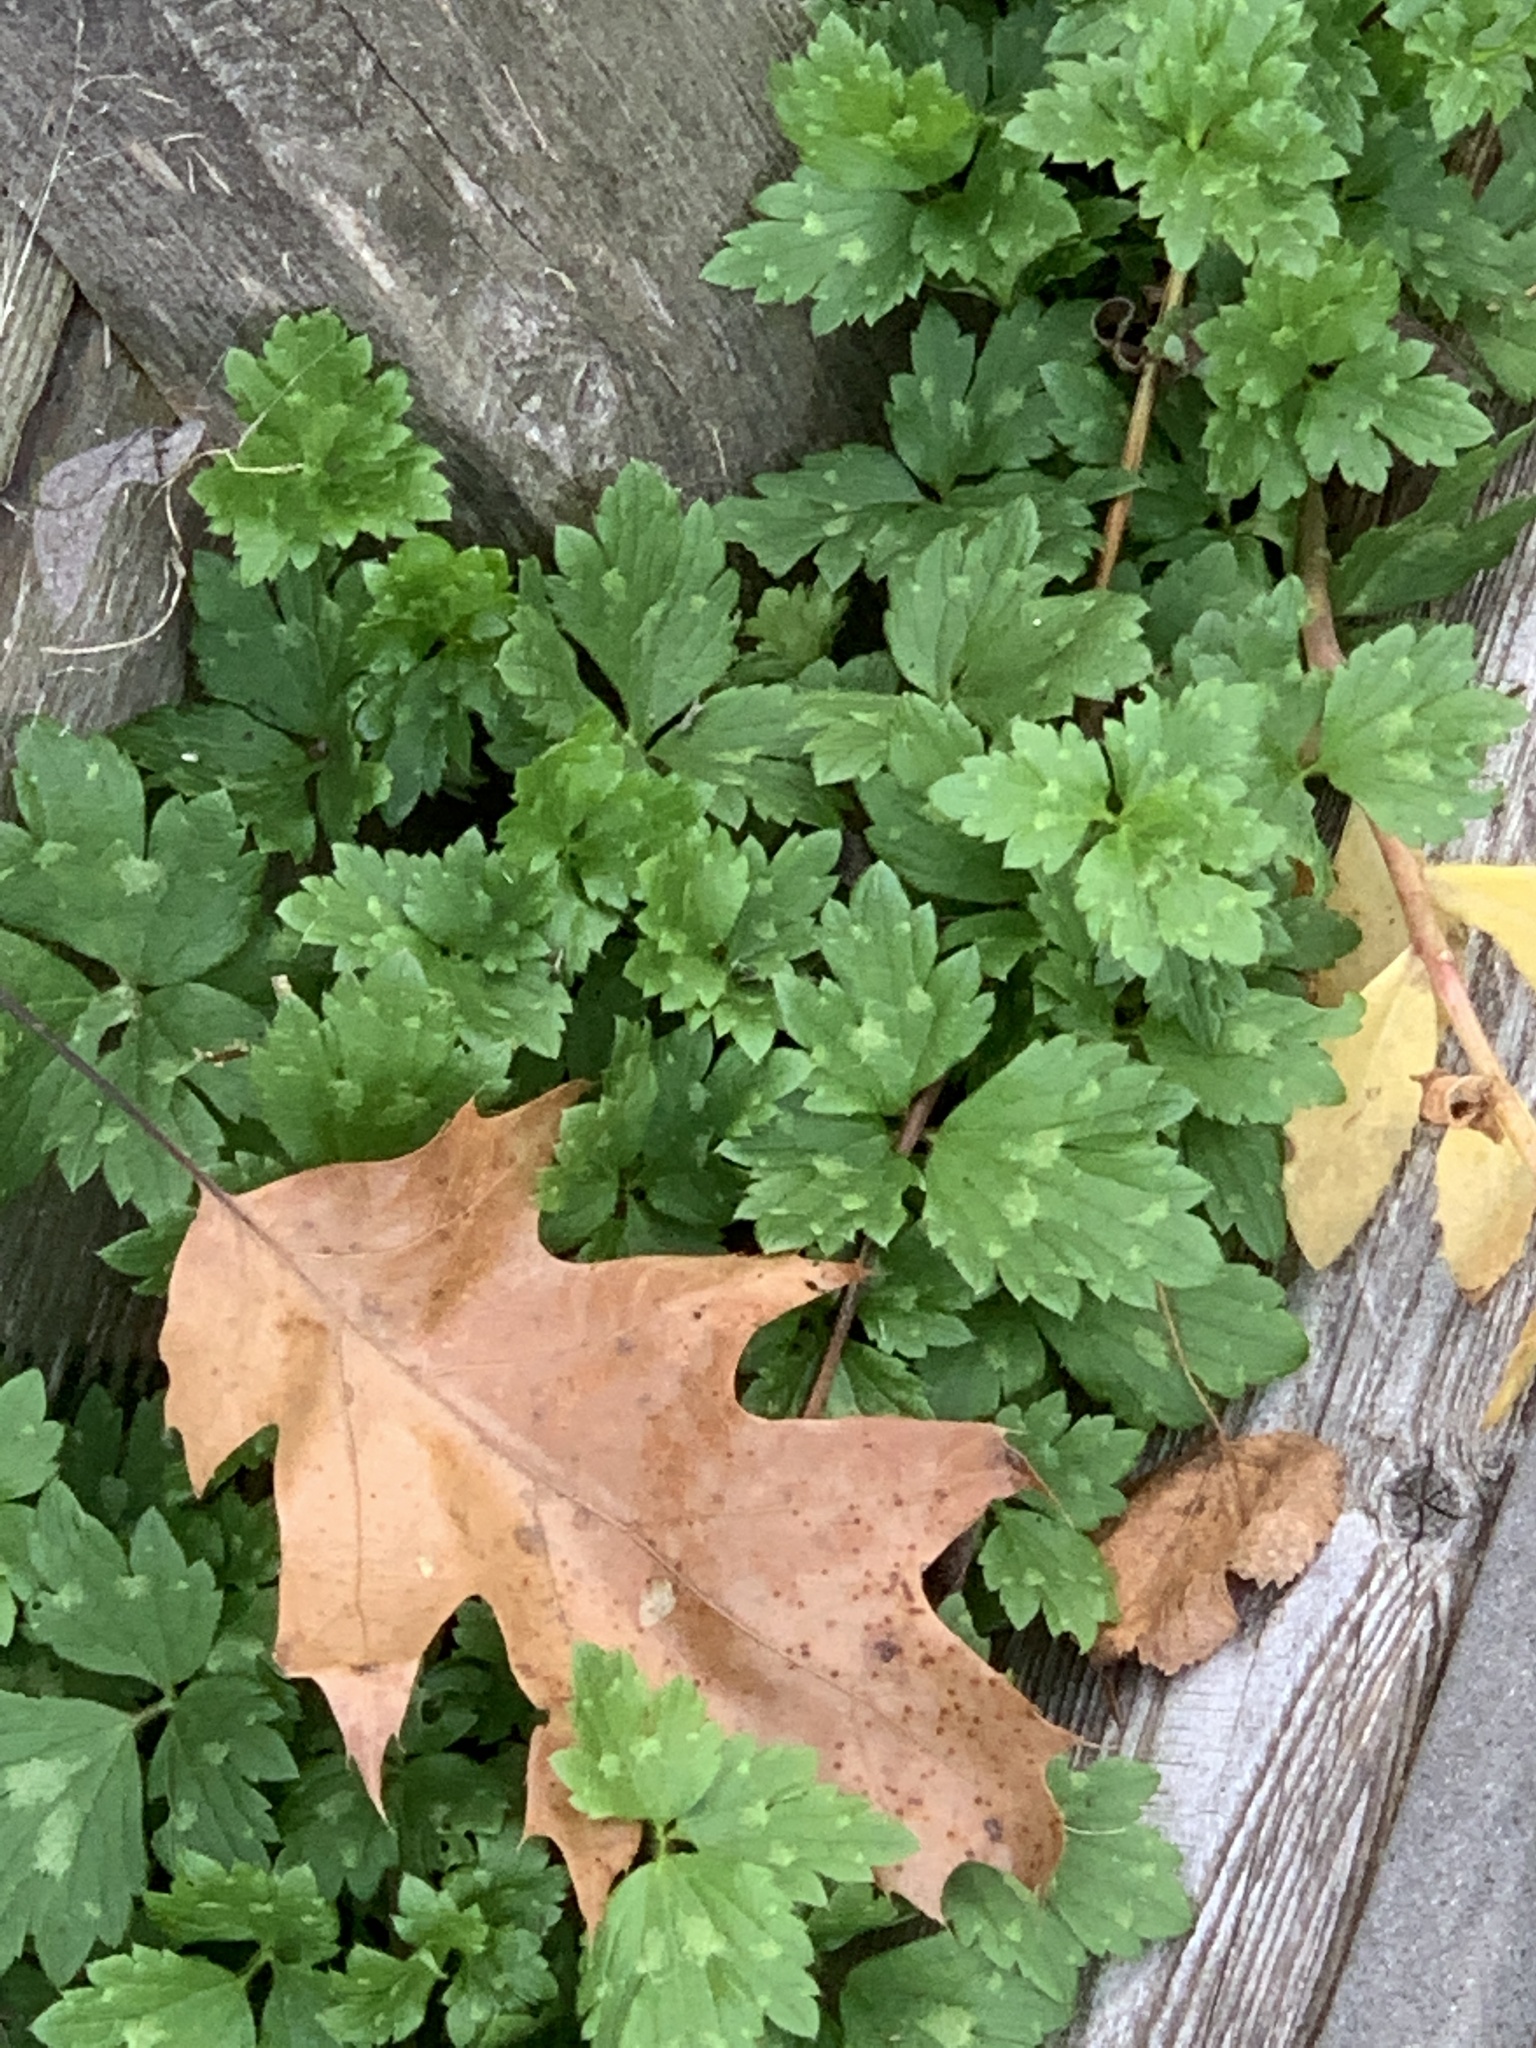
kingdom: Plantae
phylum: Tracheophyta
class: Magnoliopsida
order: Ranunculales
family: Ranunculaceae
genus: Ranunculus
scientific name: Ranunculus repens
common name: Creeping buttercup
